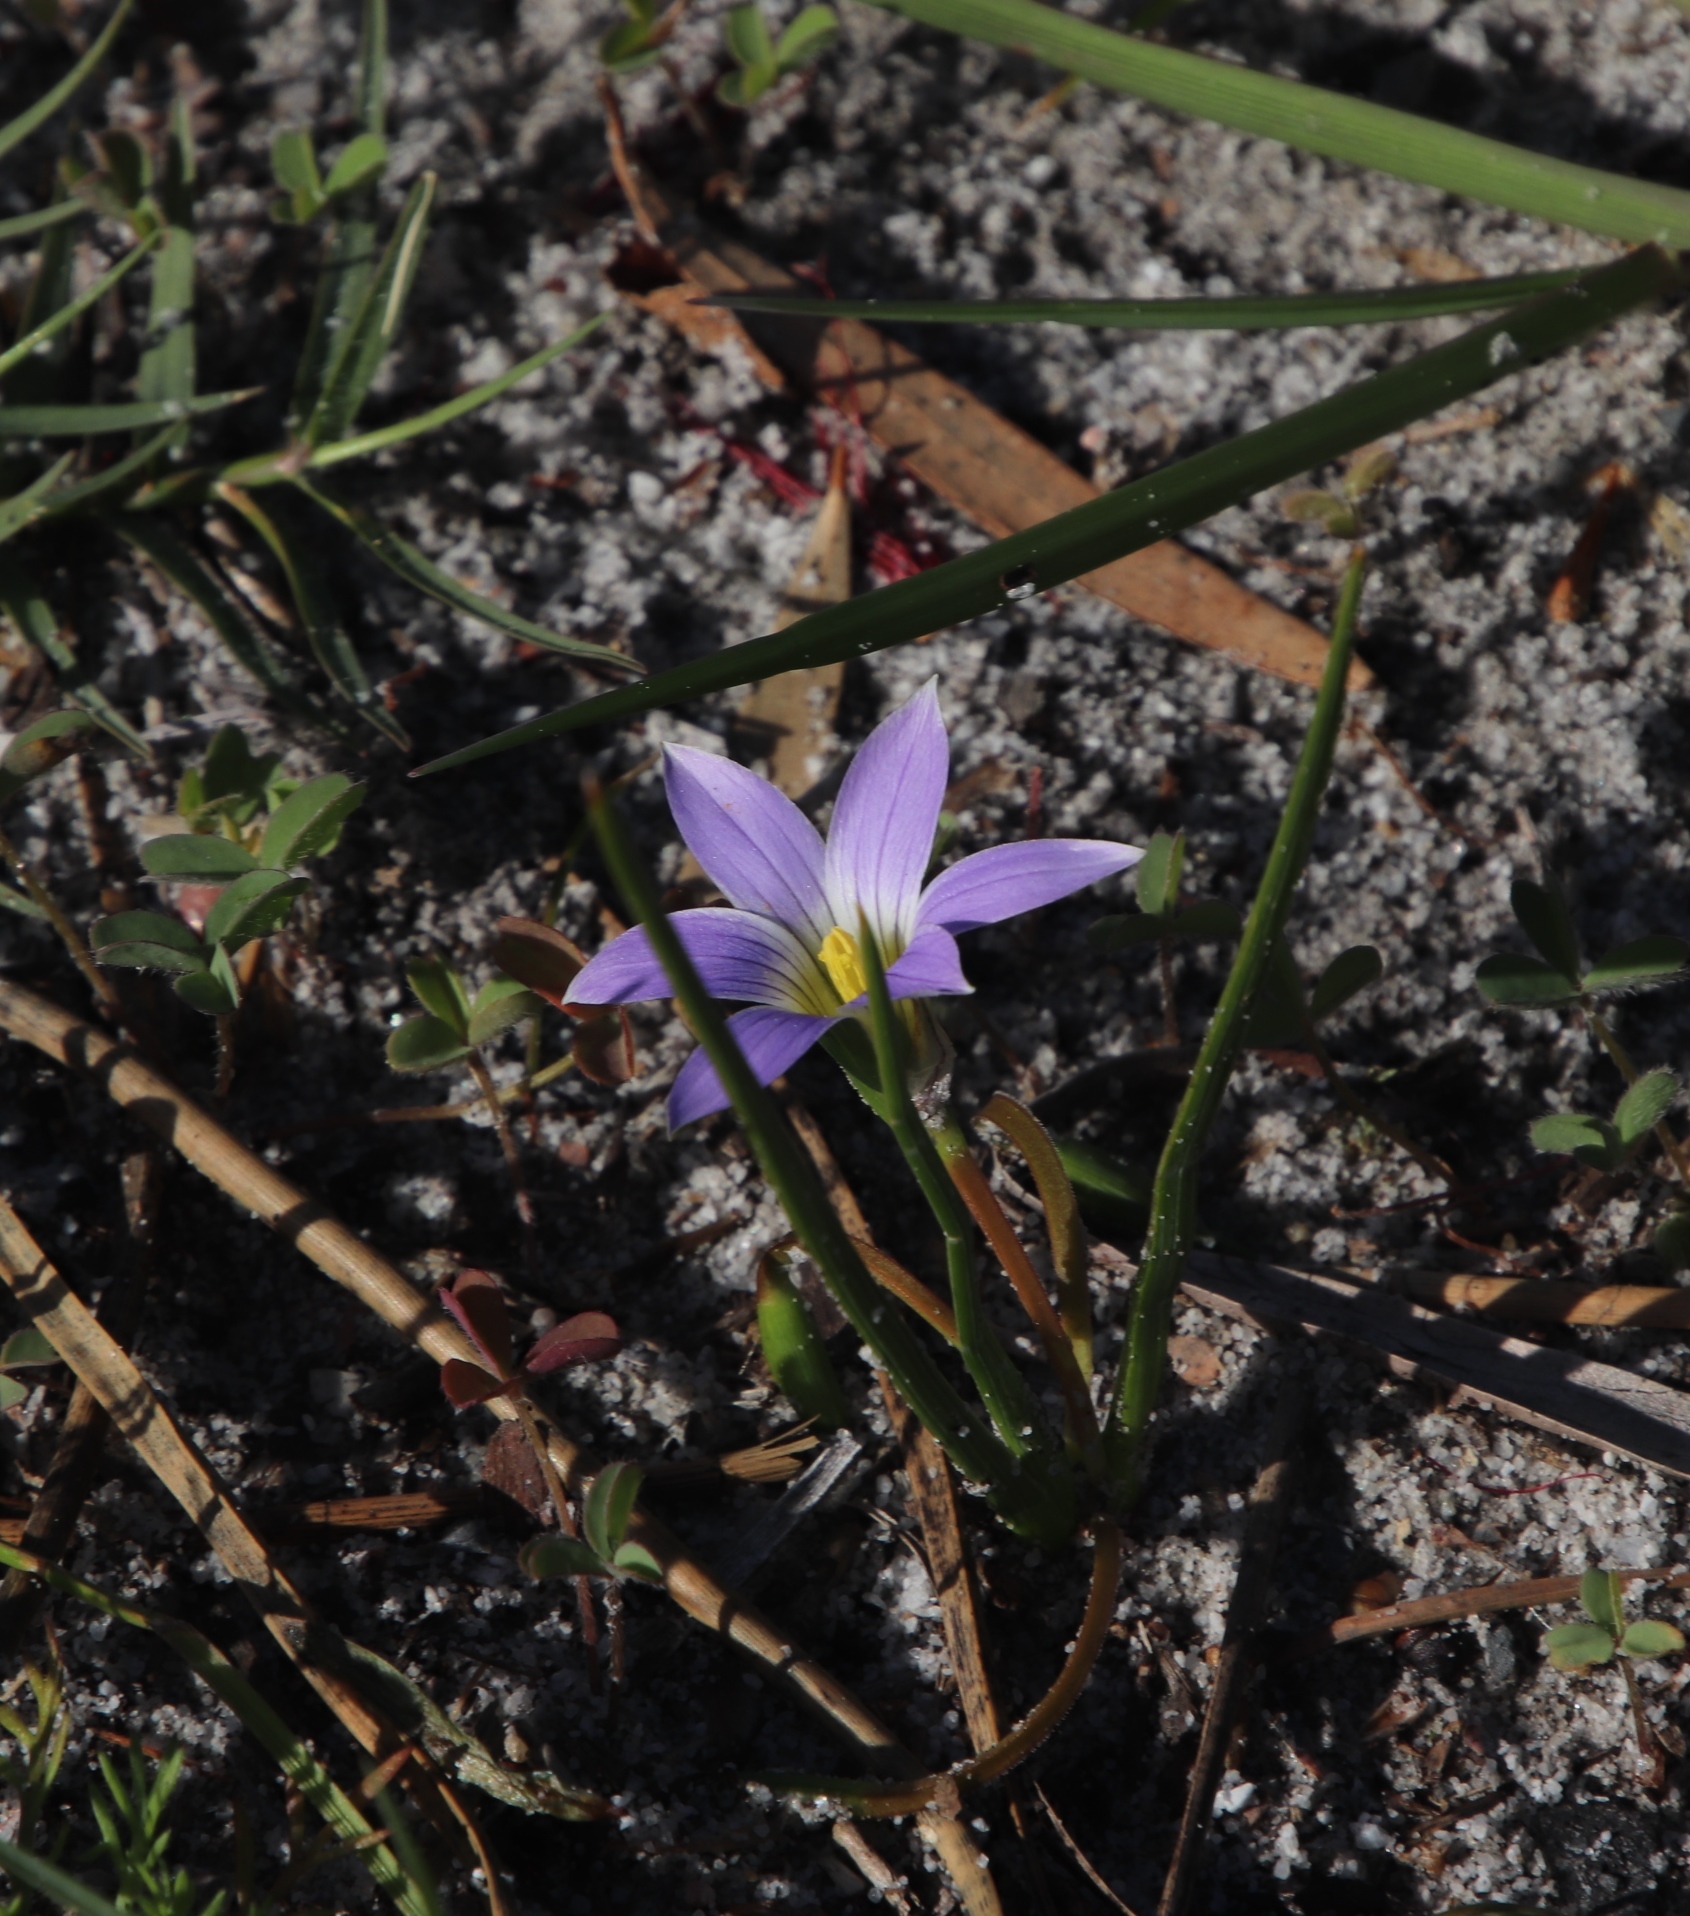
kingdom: Plantae
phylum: Tracheophyta
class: Liliopsida
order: Asparagales
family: Iridaceae
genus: Romulea
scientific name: Romulea rosea
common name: Oniongrass
